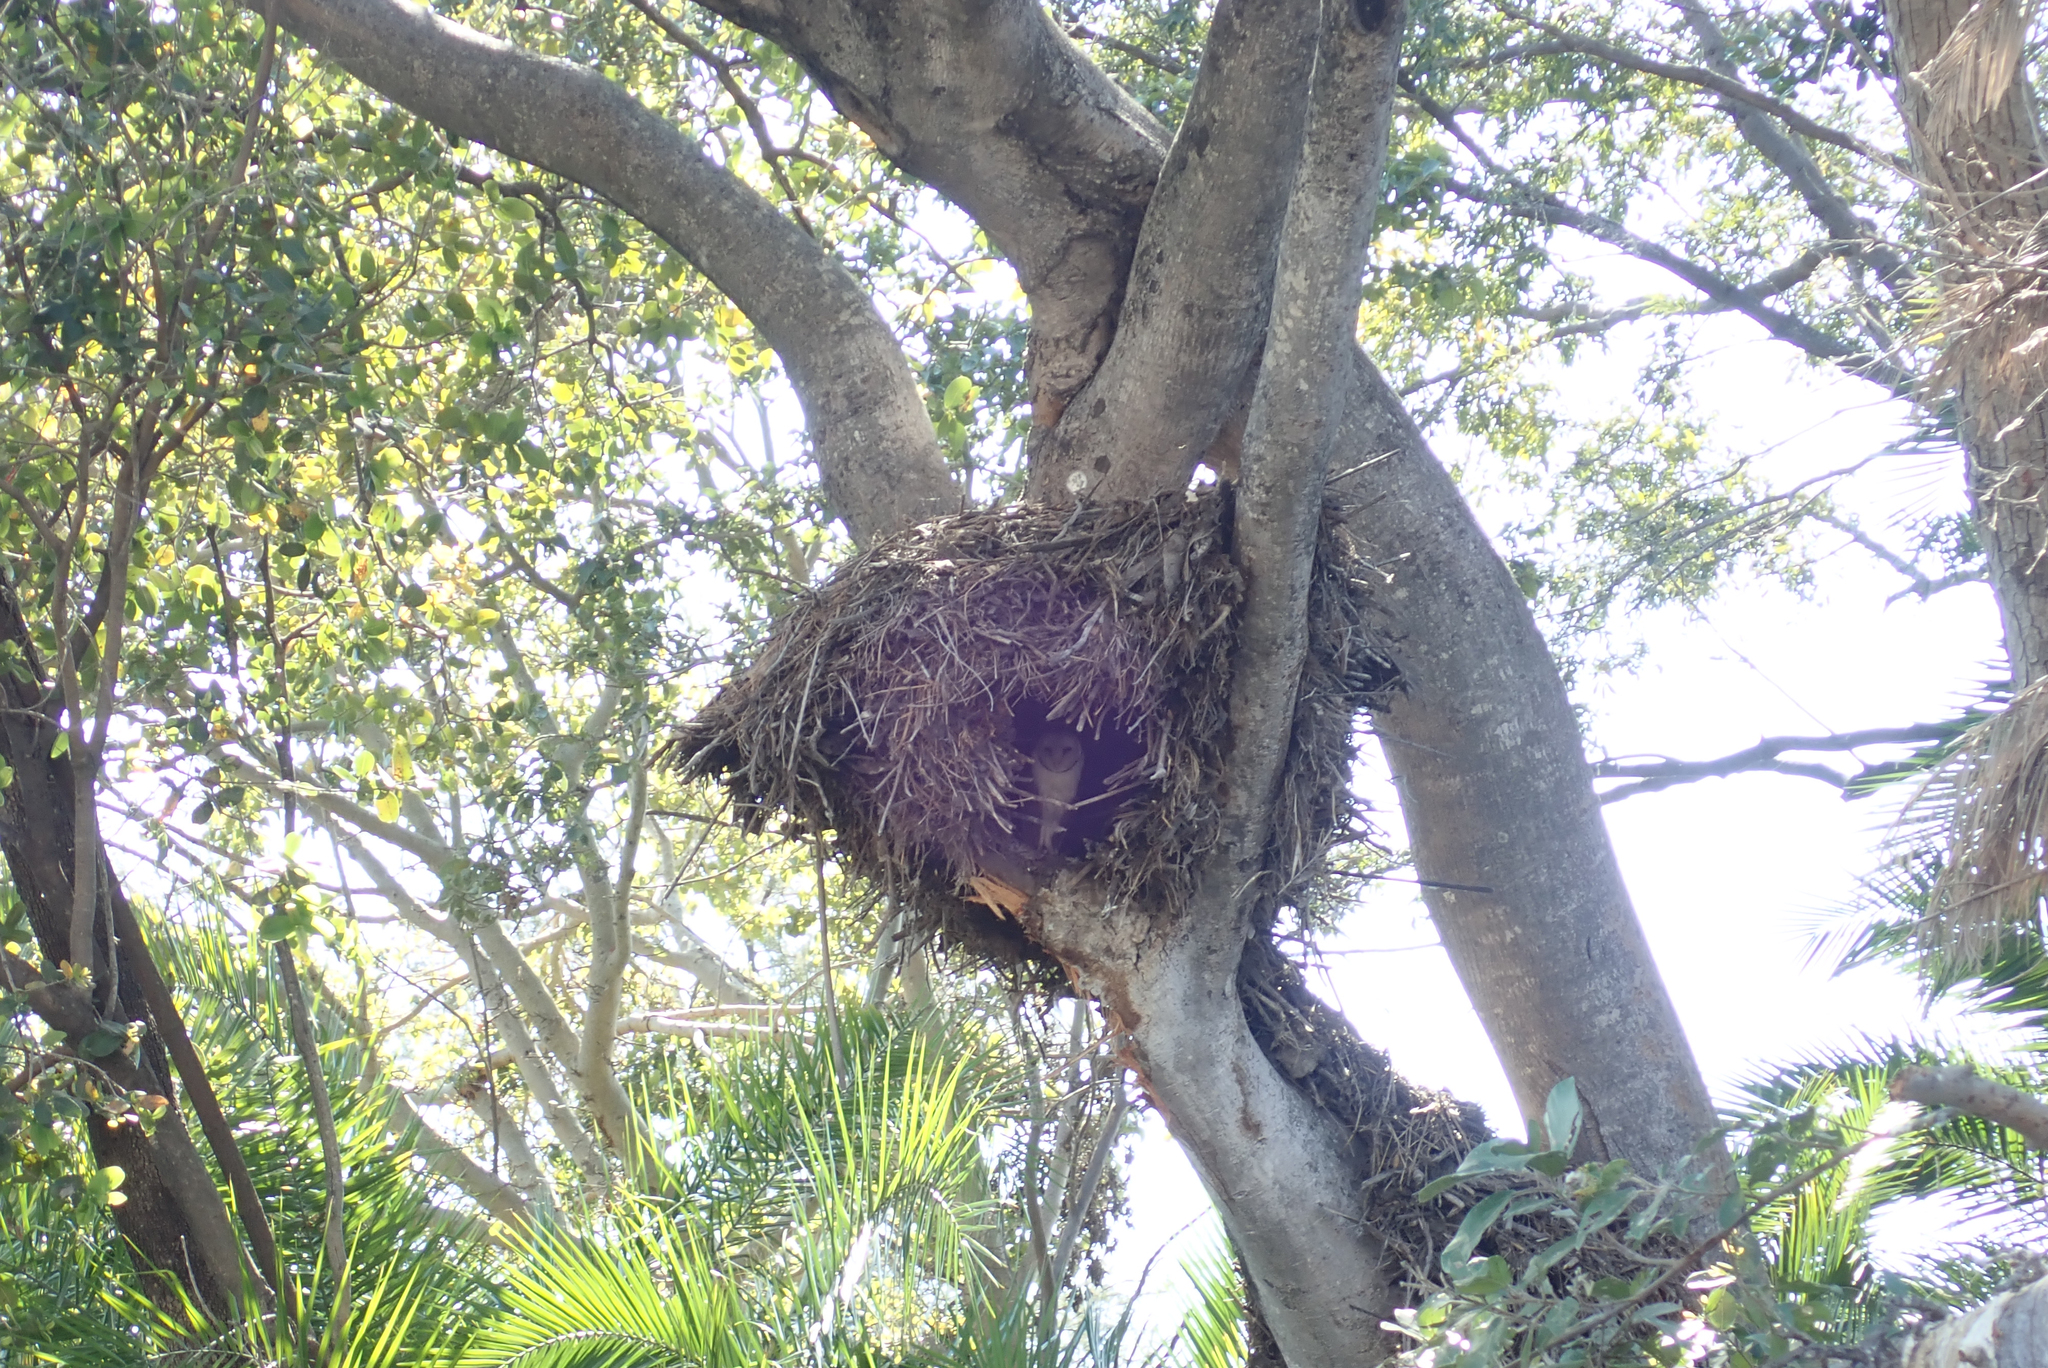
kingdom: Animalia
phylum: Chordata
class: Aves
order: Pelecaniformes
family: Scopidae
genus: Scopus
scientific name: Scopus umbretta
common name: Hamerkop
